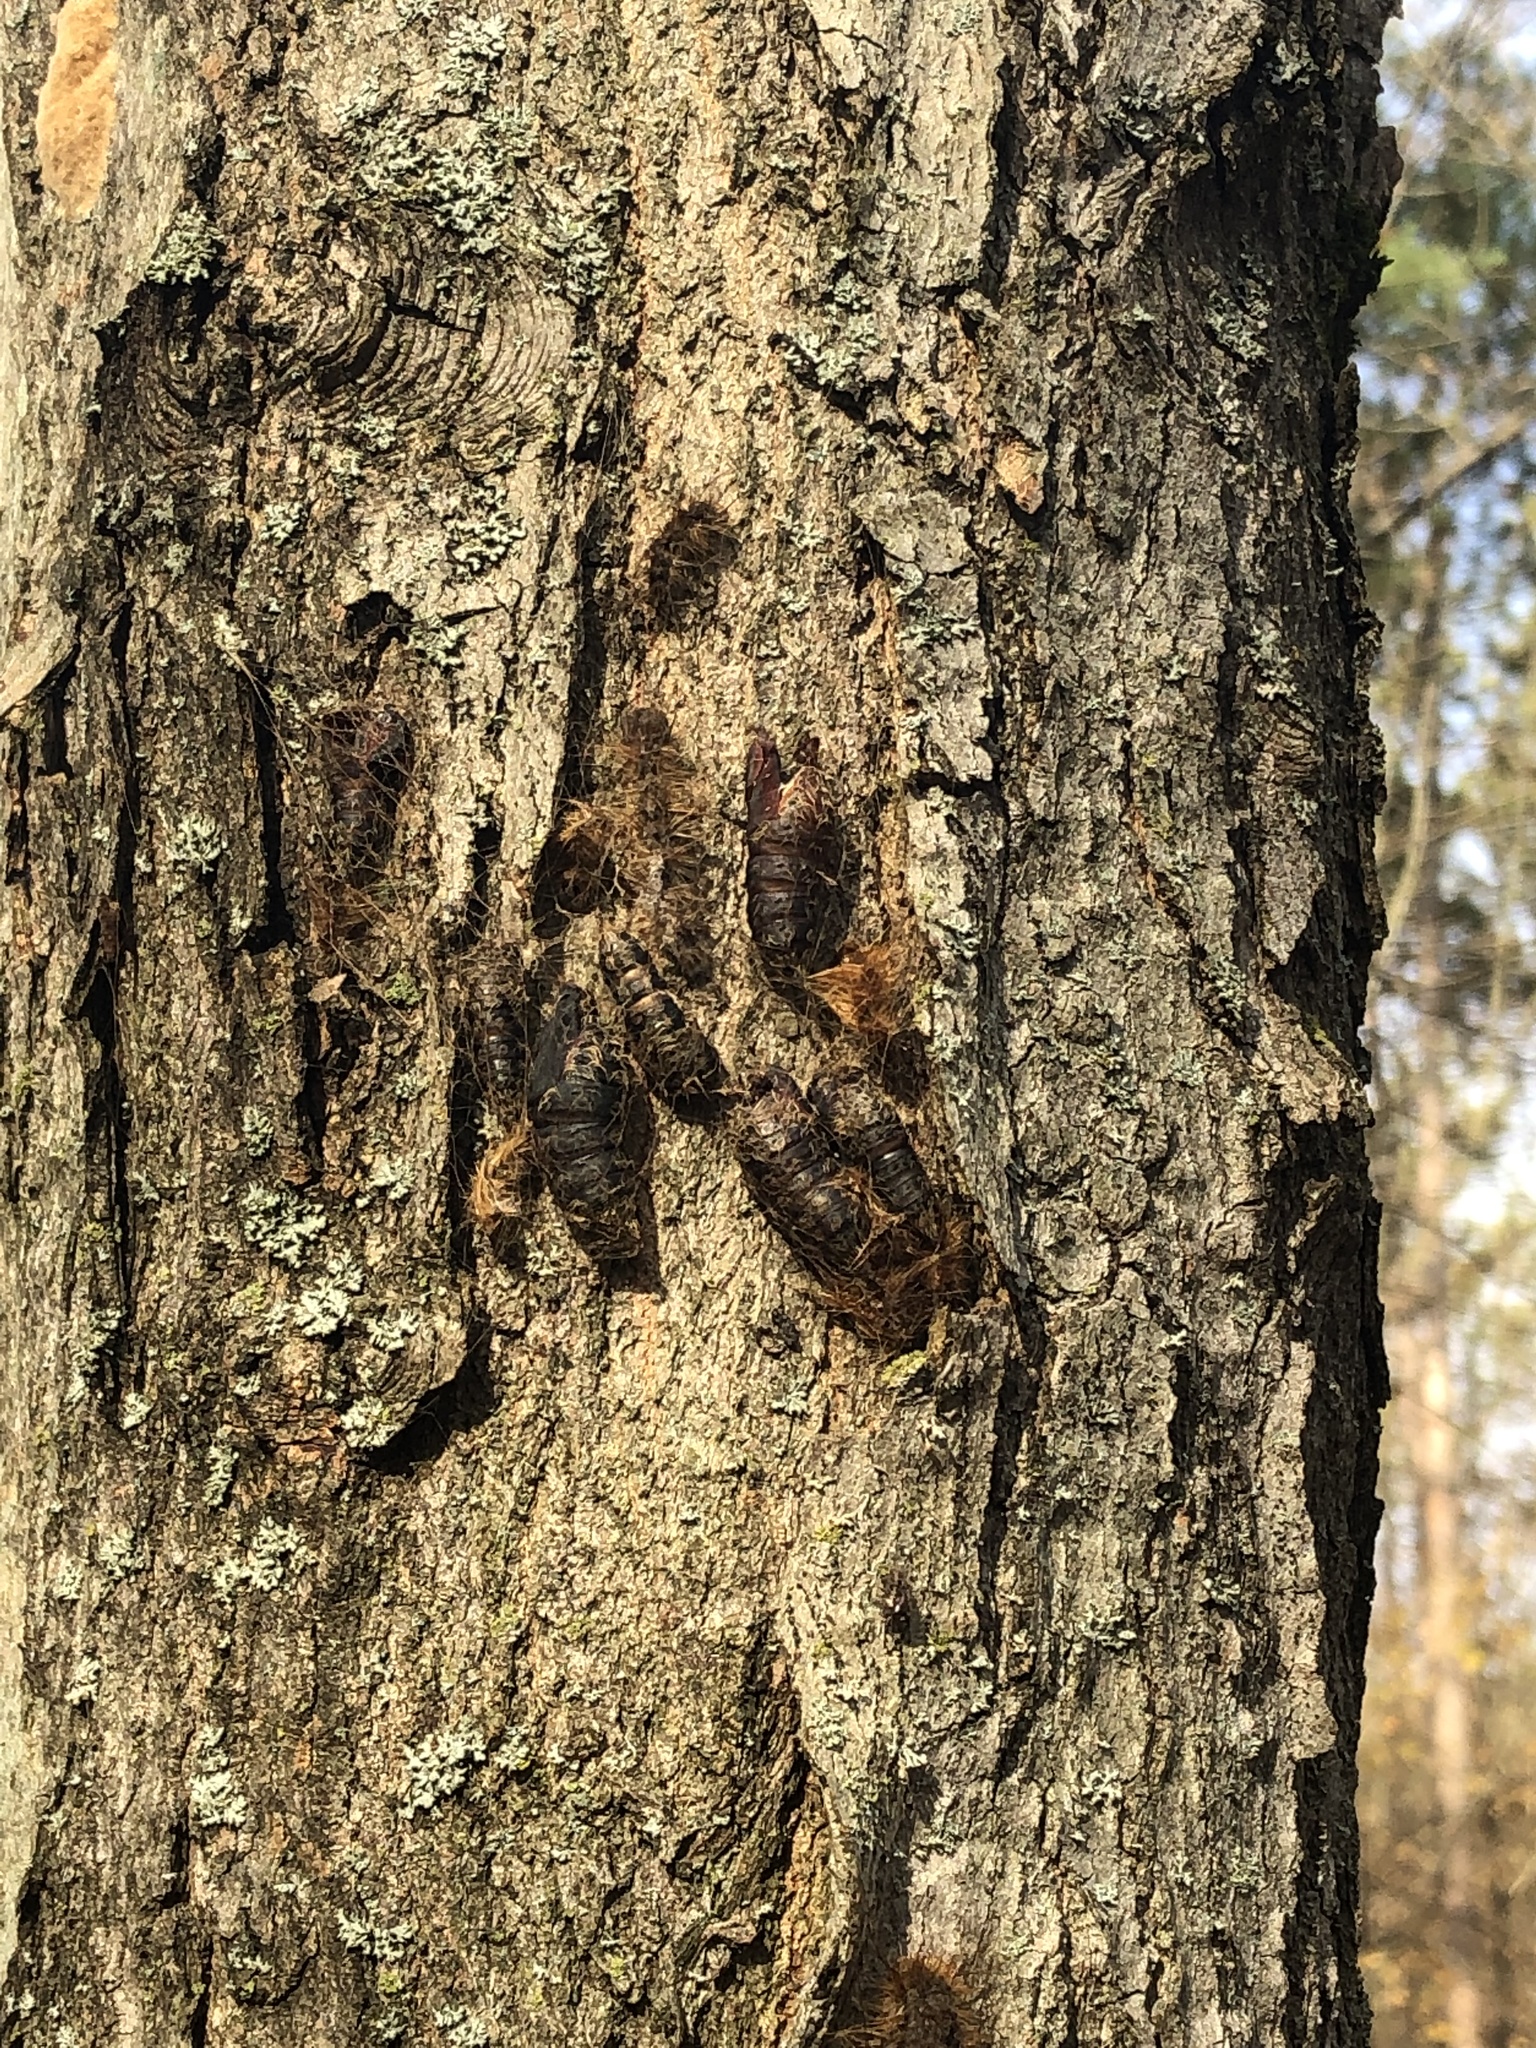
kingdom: Animalia
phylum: Arthropoda
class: Insecta
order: Lepidoptera
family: Erebidae
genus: Lymantria
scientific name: Lymantria dispar
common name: Gypsy moth
